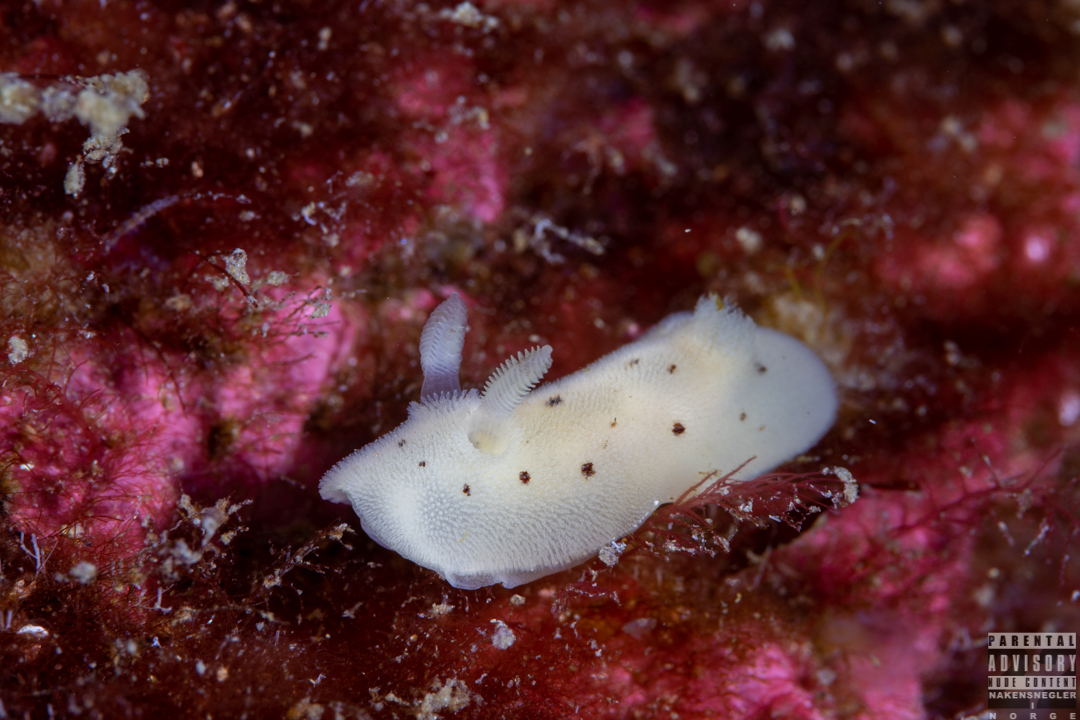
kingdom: Animalia
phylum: Mollusca
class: Gastropoda
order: Nudibranchia
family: Discodorididae
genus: Jorunna
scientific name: Jorunna artsdatabankia
